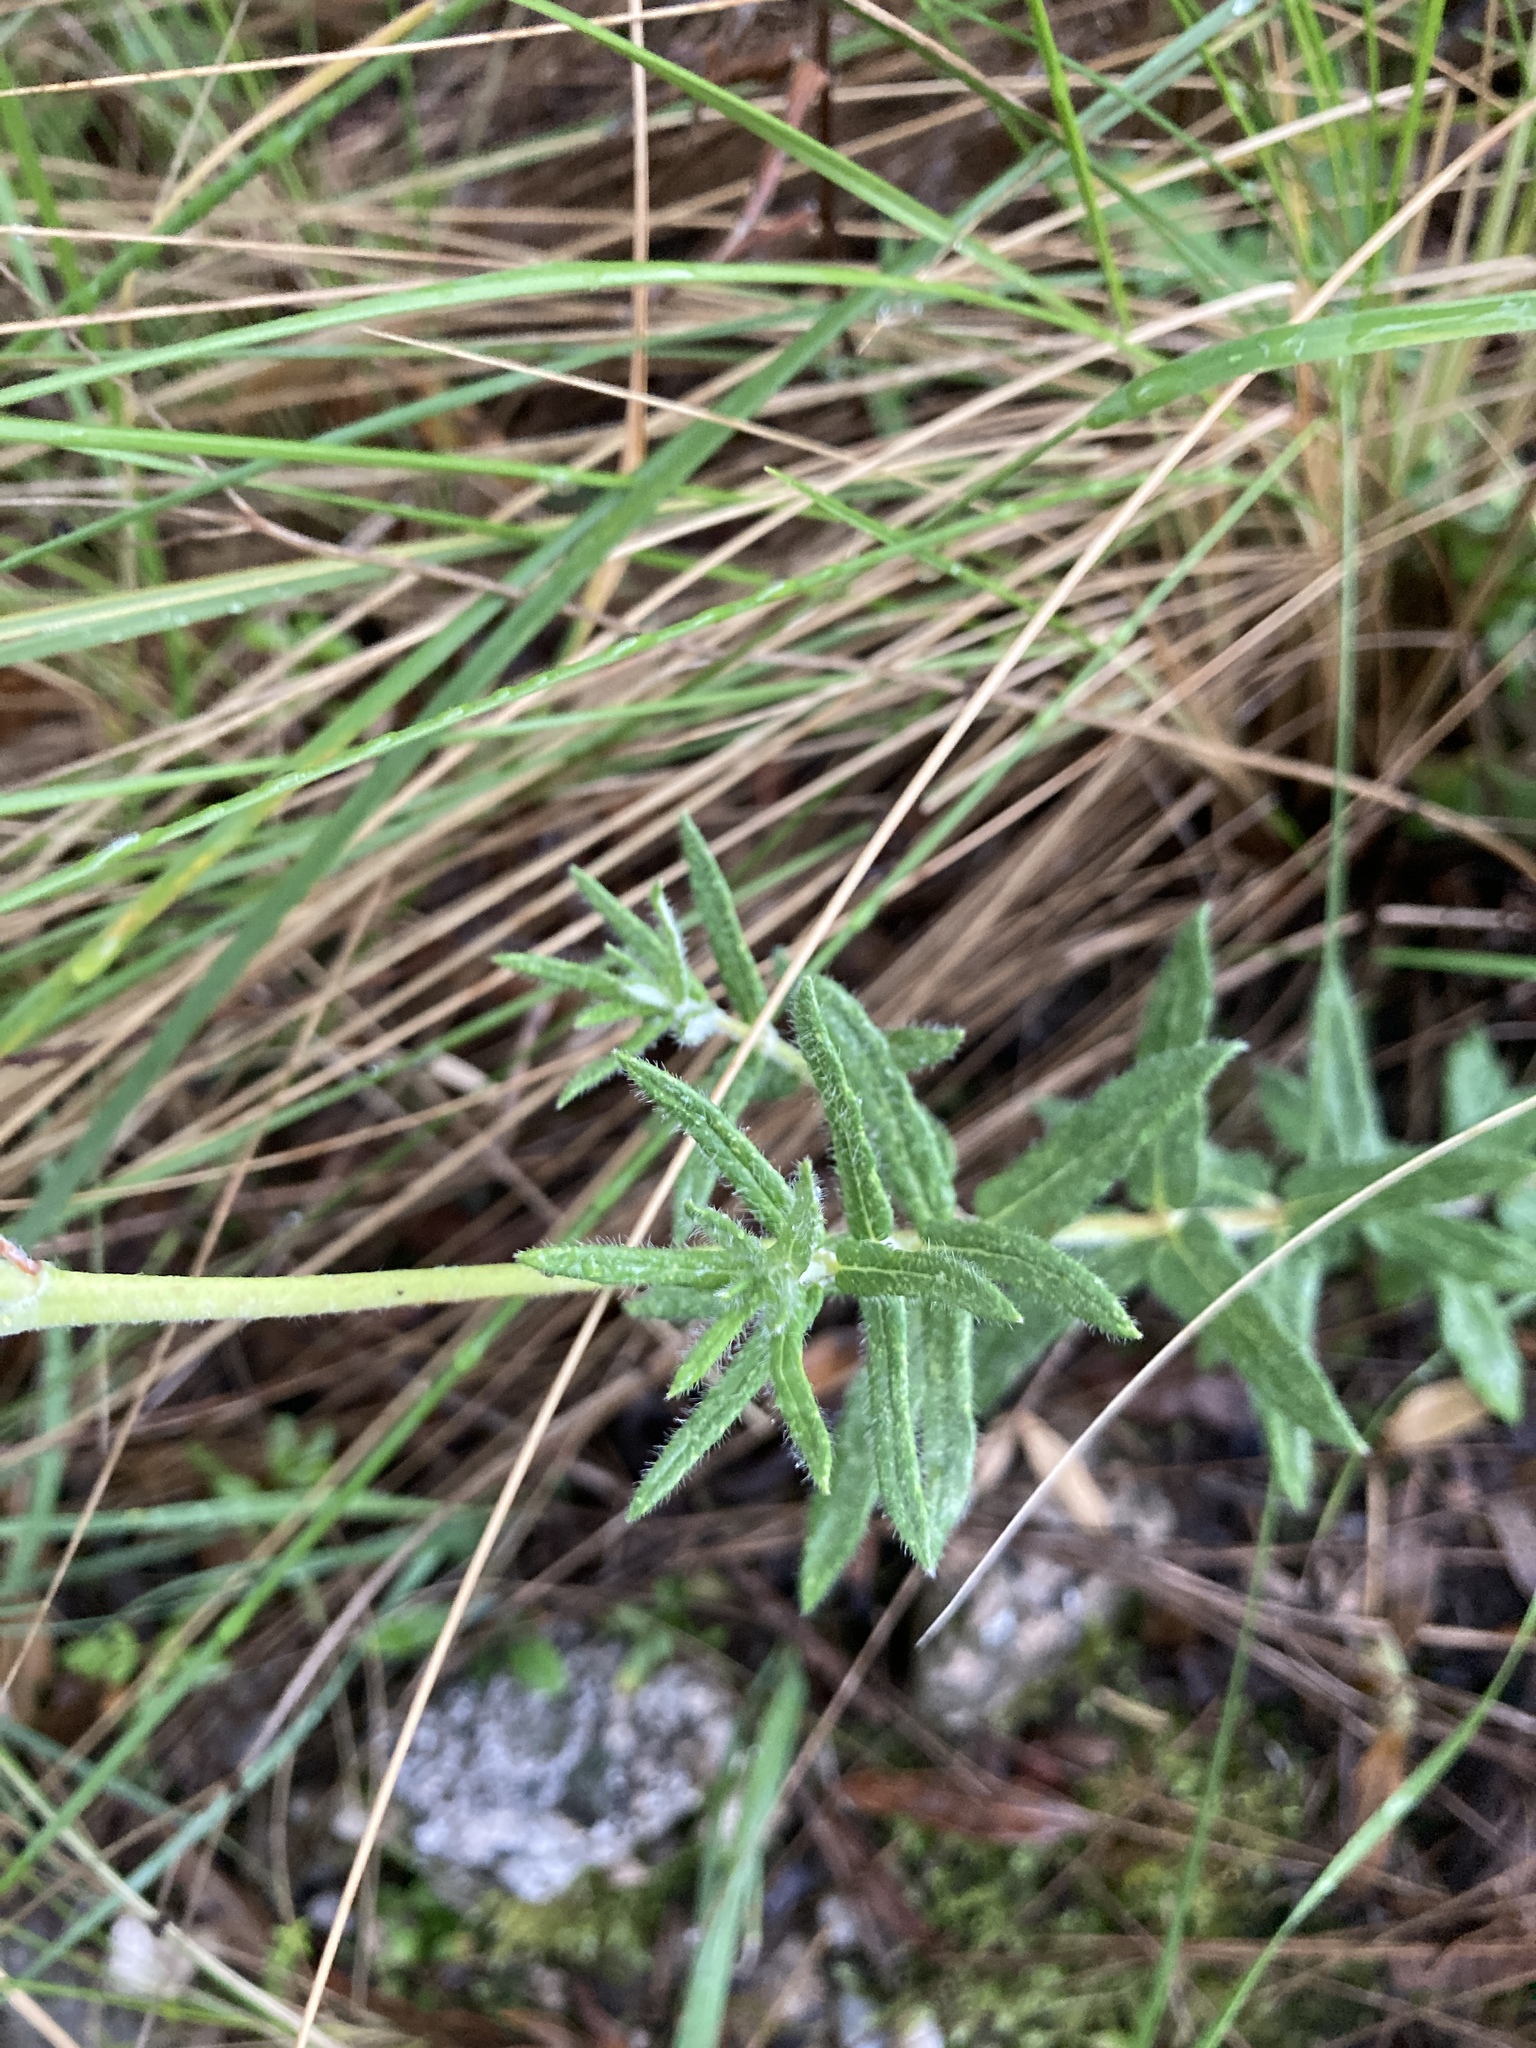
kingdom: Plantae
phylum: Tracheophyta
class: Magnoliopsida
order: Gentianales
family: Apocynaceae
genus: Mandevilla
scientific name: Mandevilla petraea
